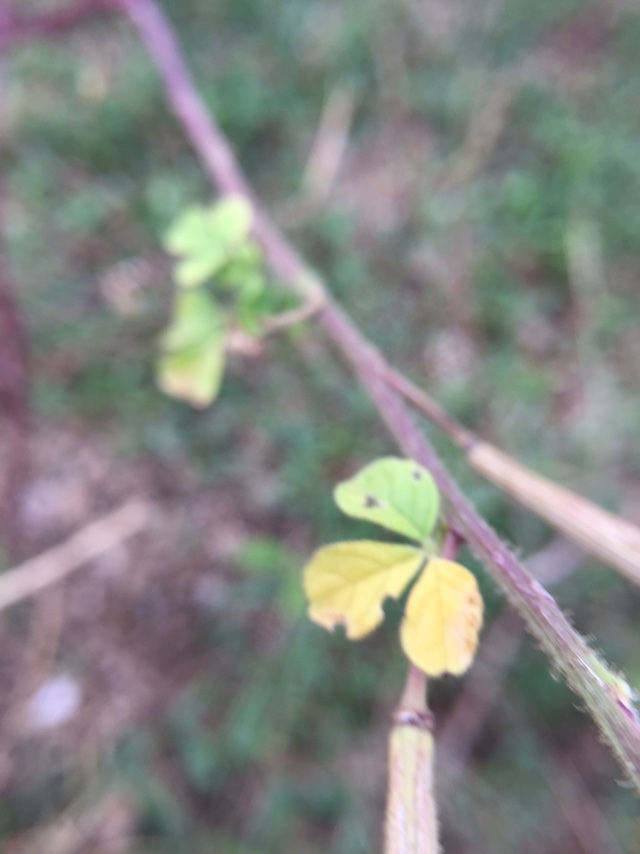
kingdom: Plantae
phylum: Tracheophyta
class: Magnoliopsida
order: Brassicales
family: Cleomaceae
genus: Arivela
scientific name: Arivela viscosa
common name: Asian spiderflower
